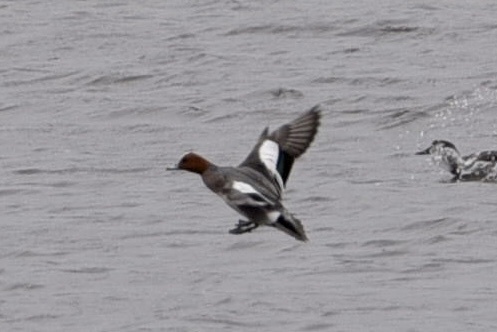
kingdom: Animalia
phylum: Chordata
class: Aves
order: Anseriformes
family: Anatidae
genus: Mareca
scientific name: Mareca penelope
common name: Eurasian wigeon
